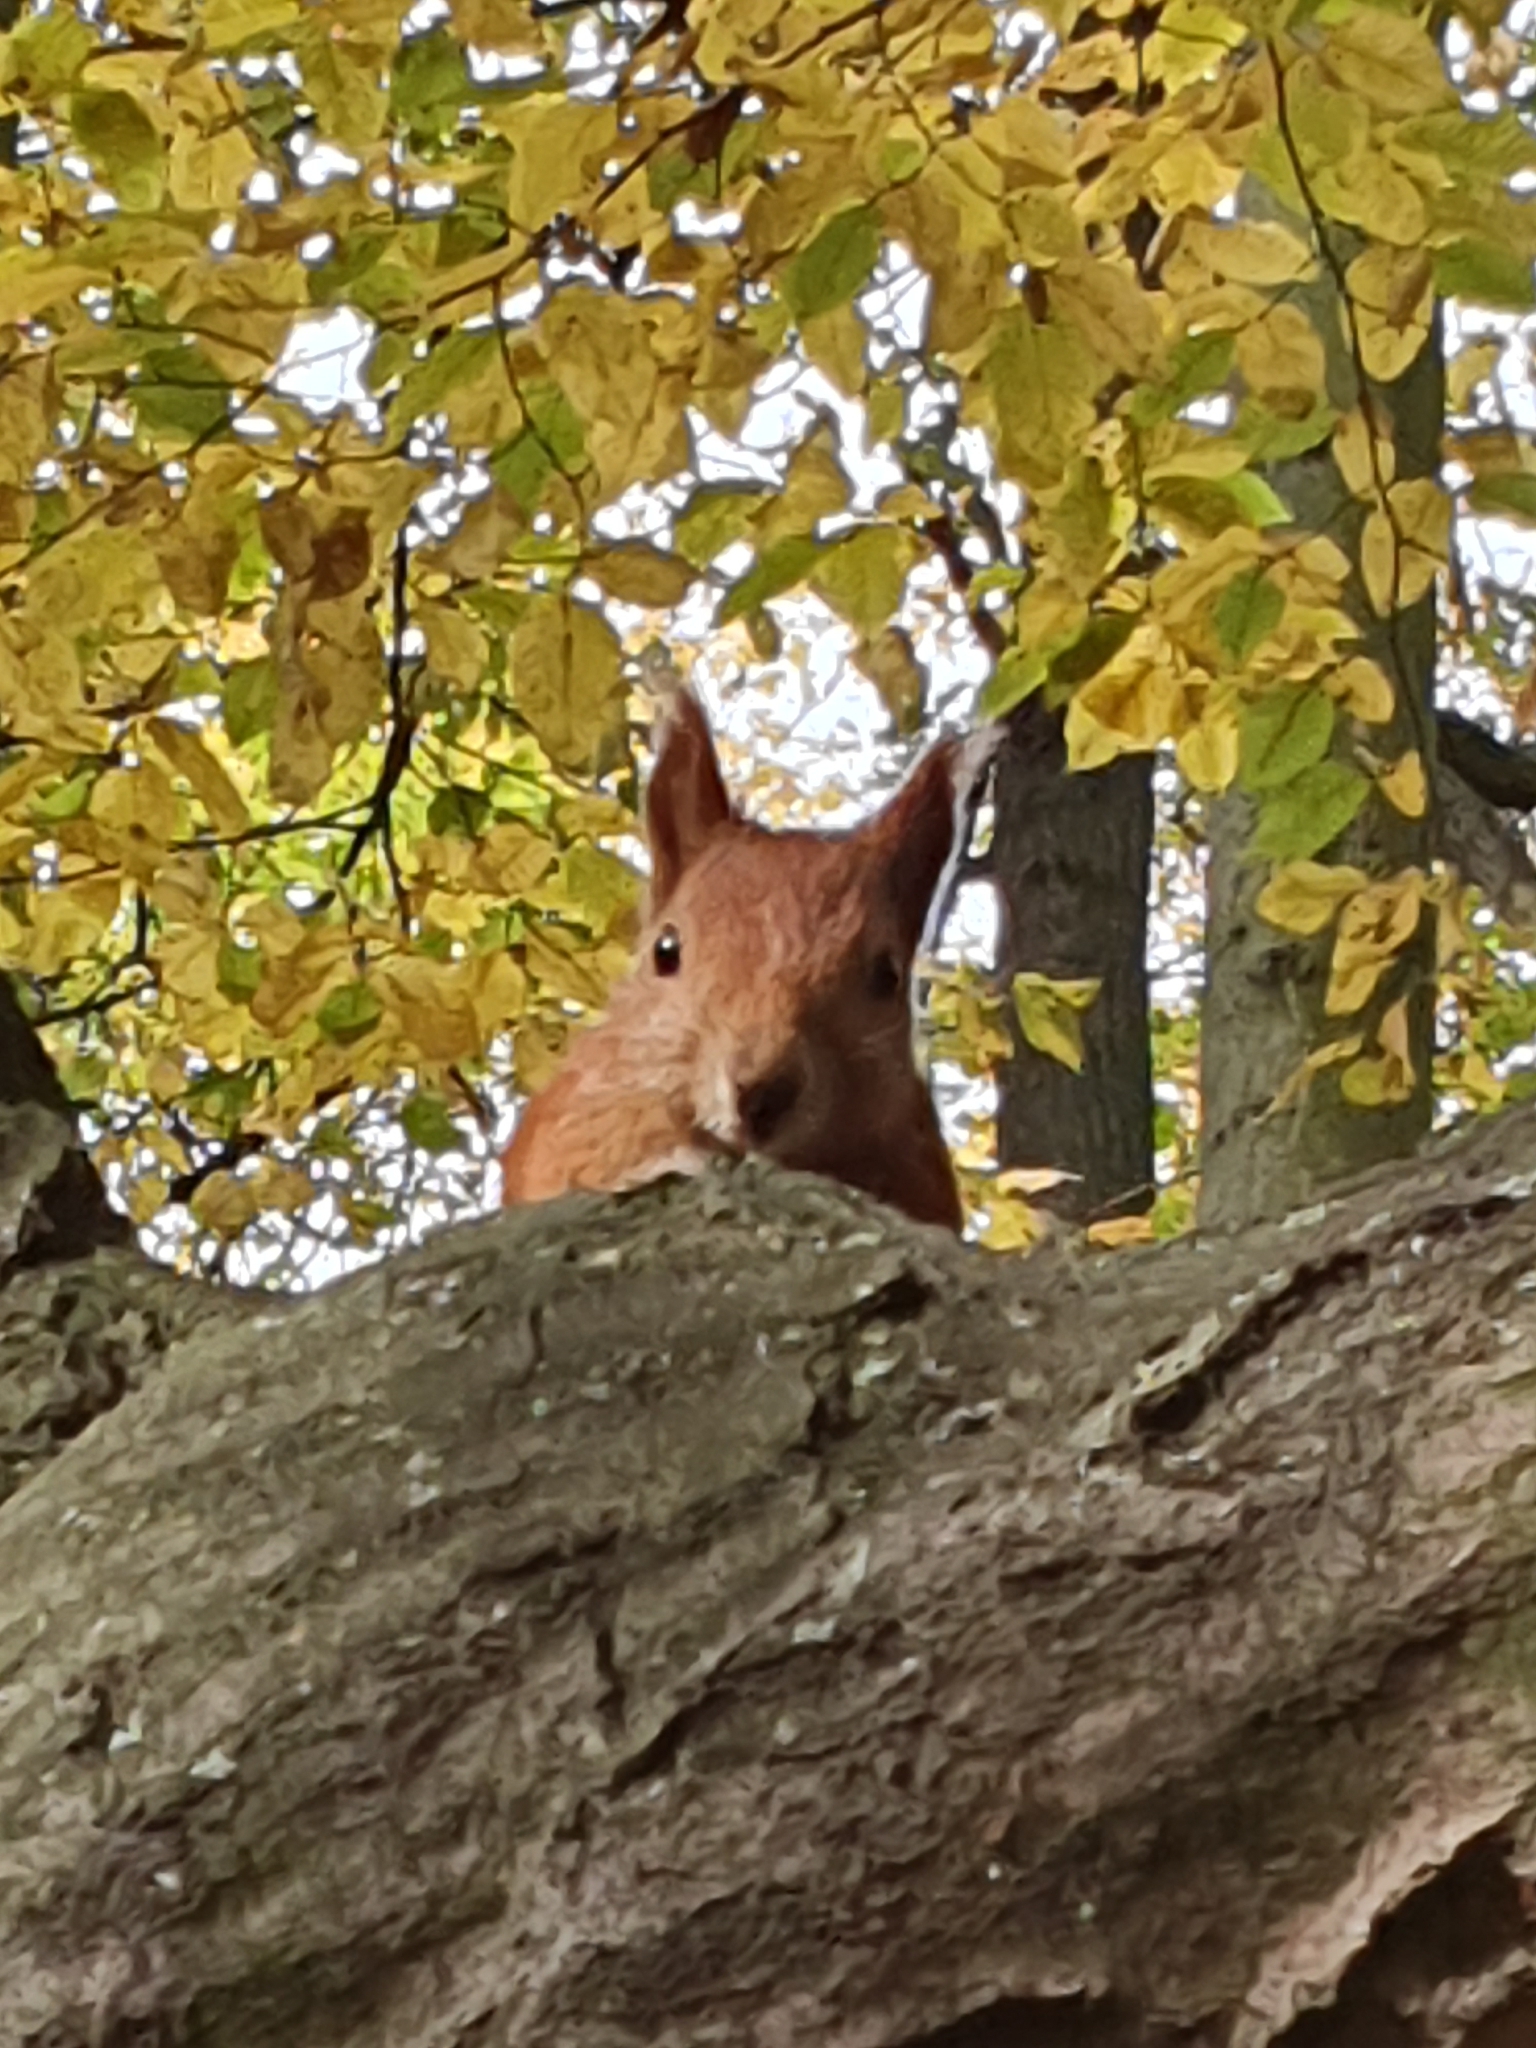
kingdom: Animalia
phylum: Chordata
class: Mammalia
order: Rodentia
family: Sciuridae
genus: Sciurus
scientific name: Sciurus vulgaris
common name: Eurasian red squirrel
